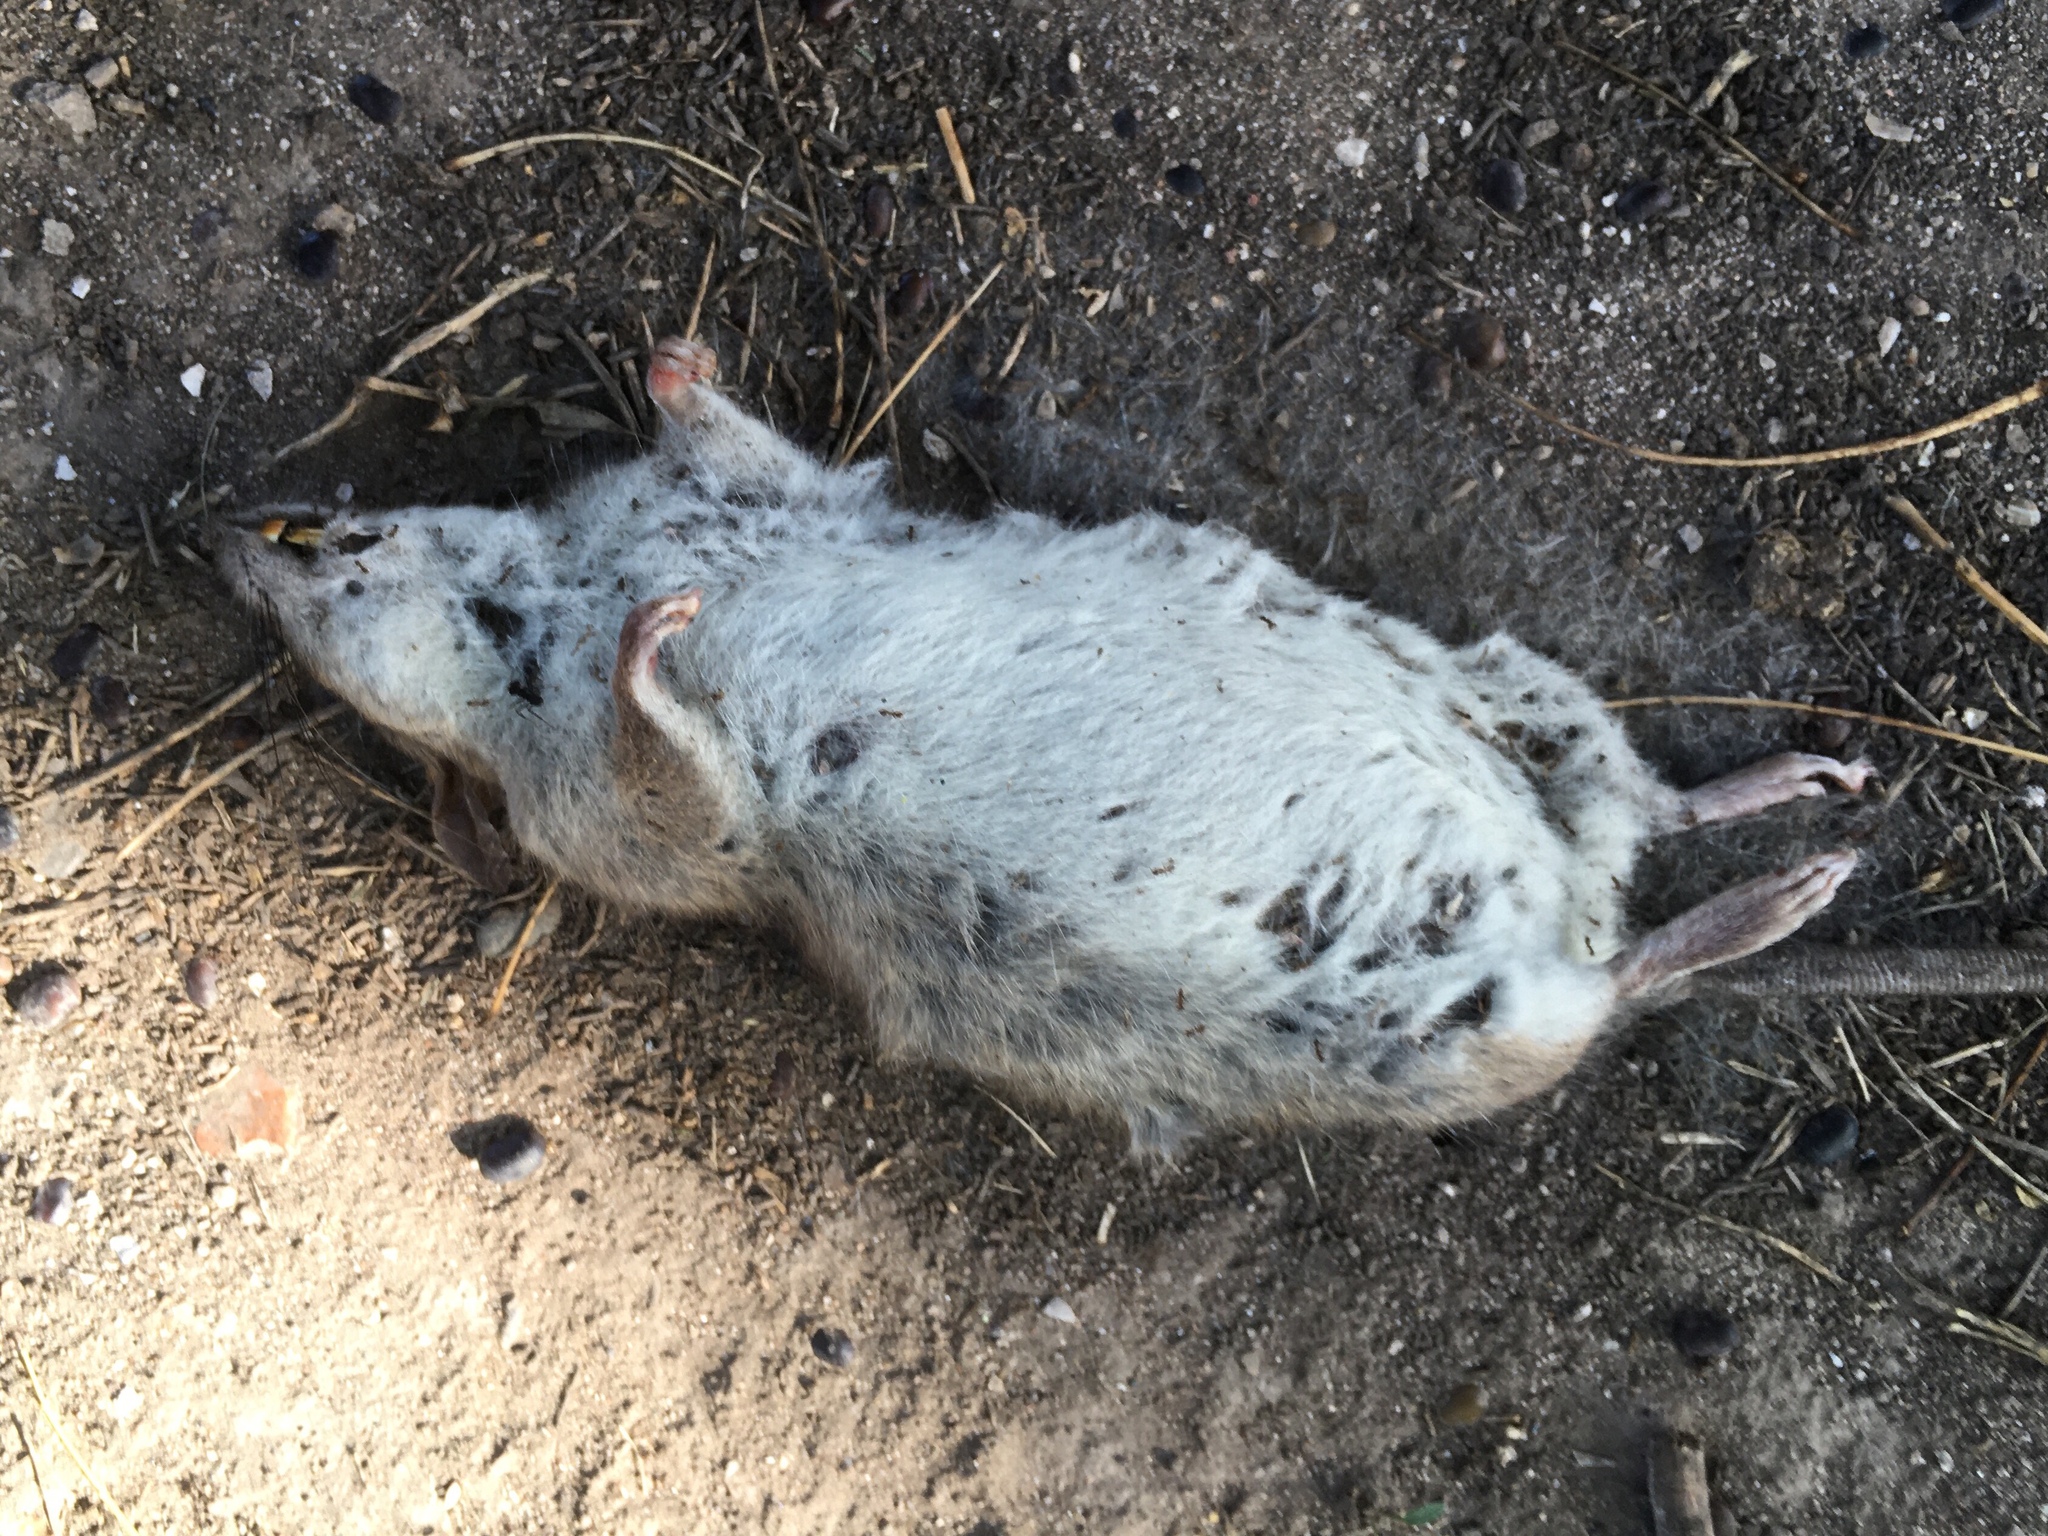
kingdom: Animalia
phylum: Chordata
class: Mammalia
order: Rodentia
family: Muridae
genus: Rattus
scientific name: Rattus rattus
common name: Black rat
